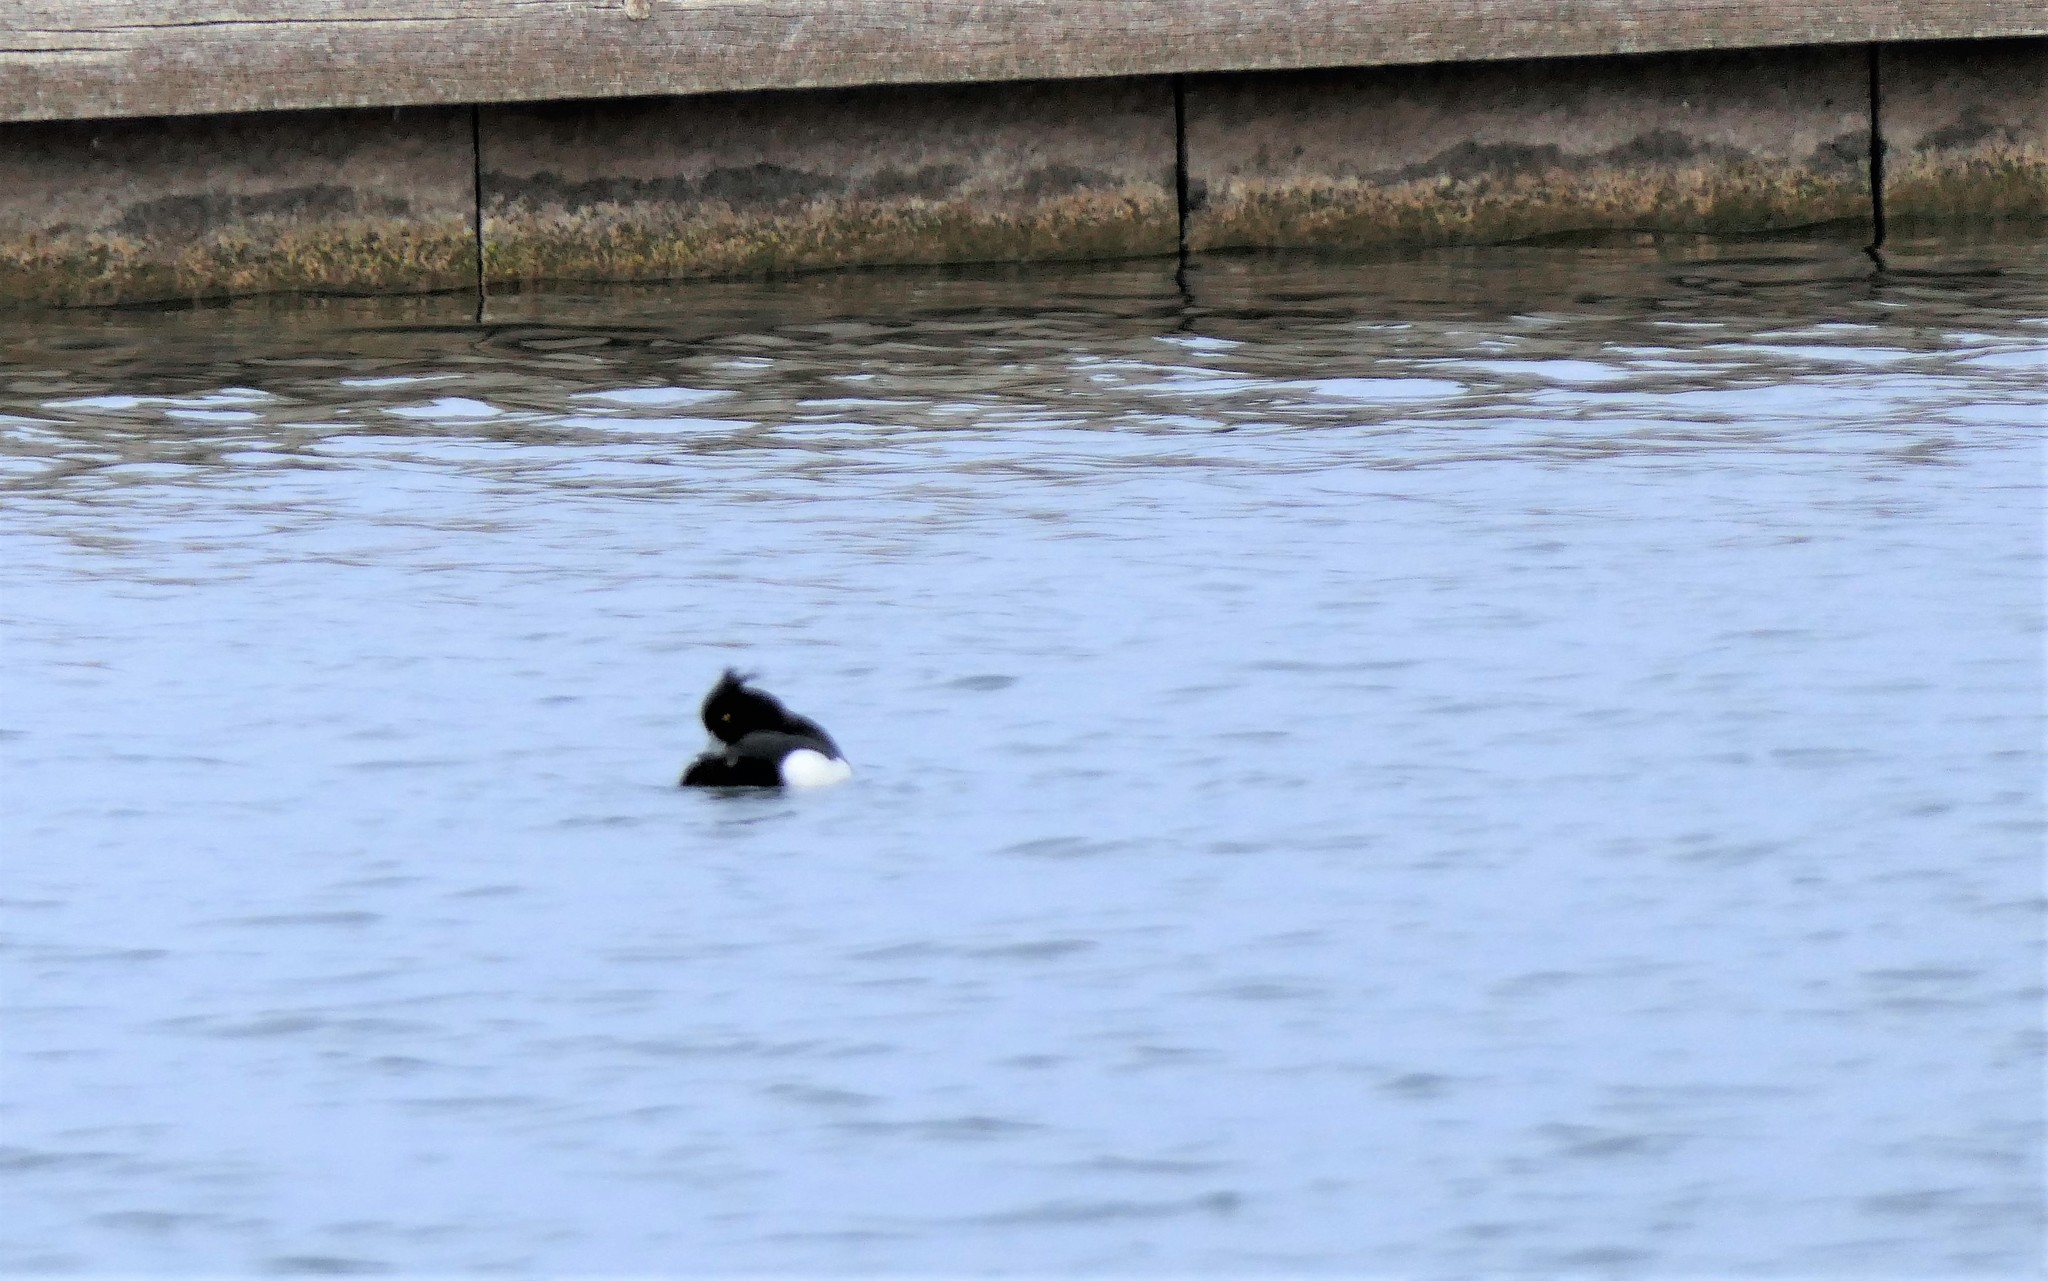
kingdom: Animalia
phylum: Chordata
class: Aves
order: Anseriformes
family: Anatidae
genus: Aythya
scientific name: Aythya fuligula
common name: Tufted duck
